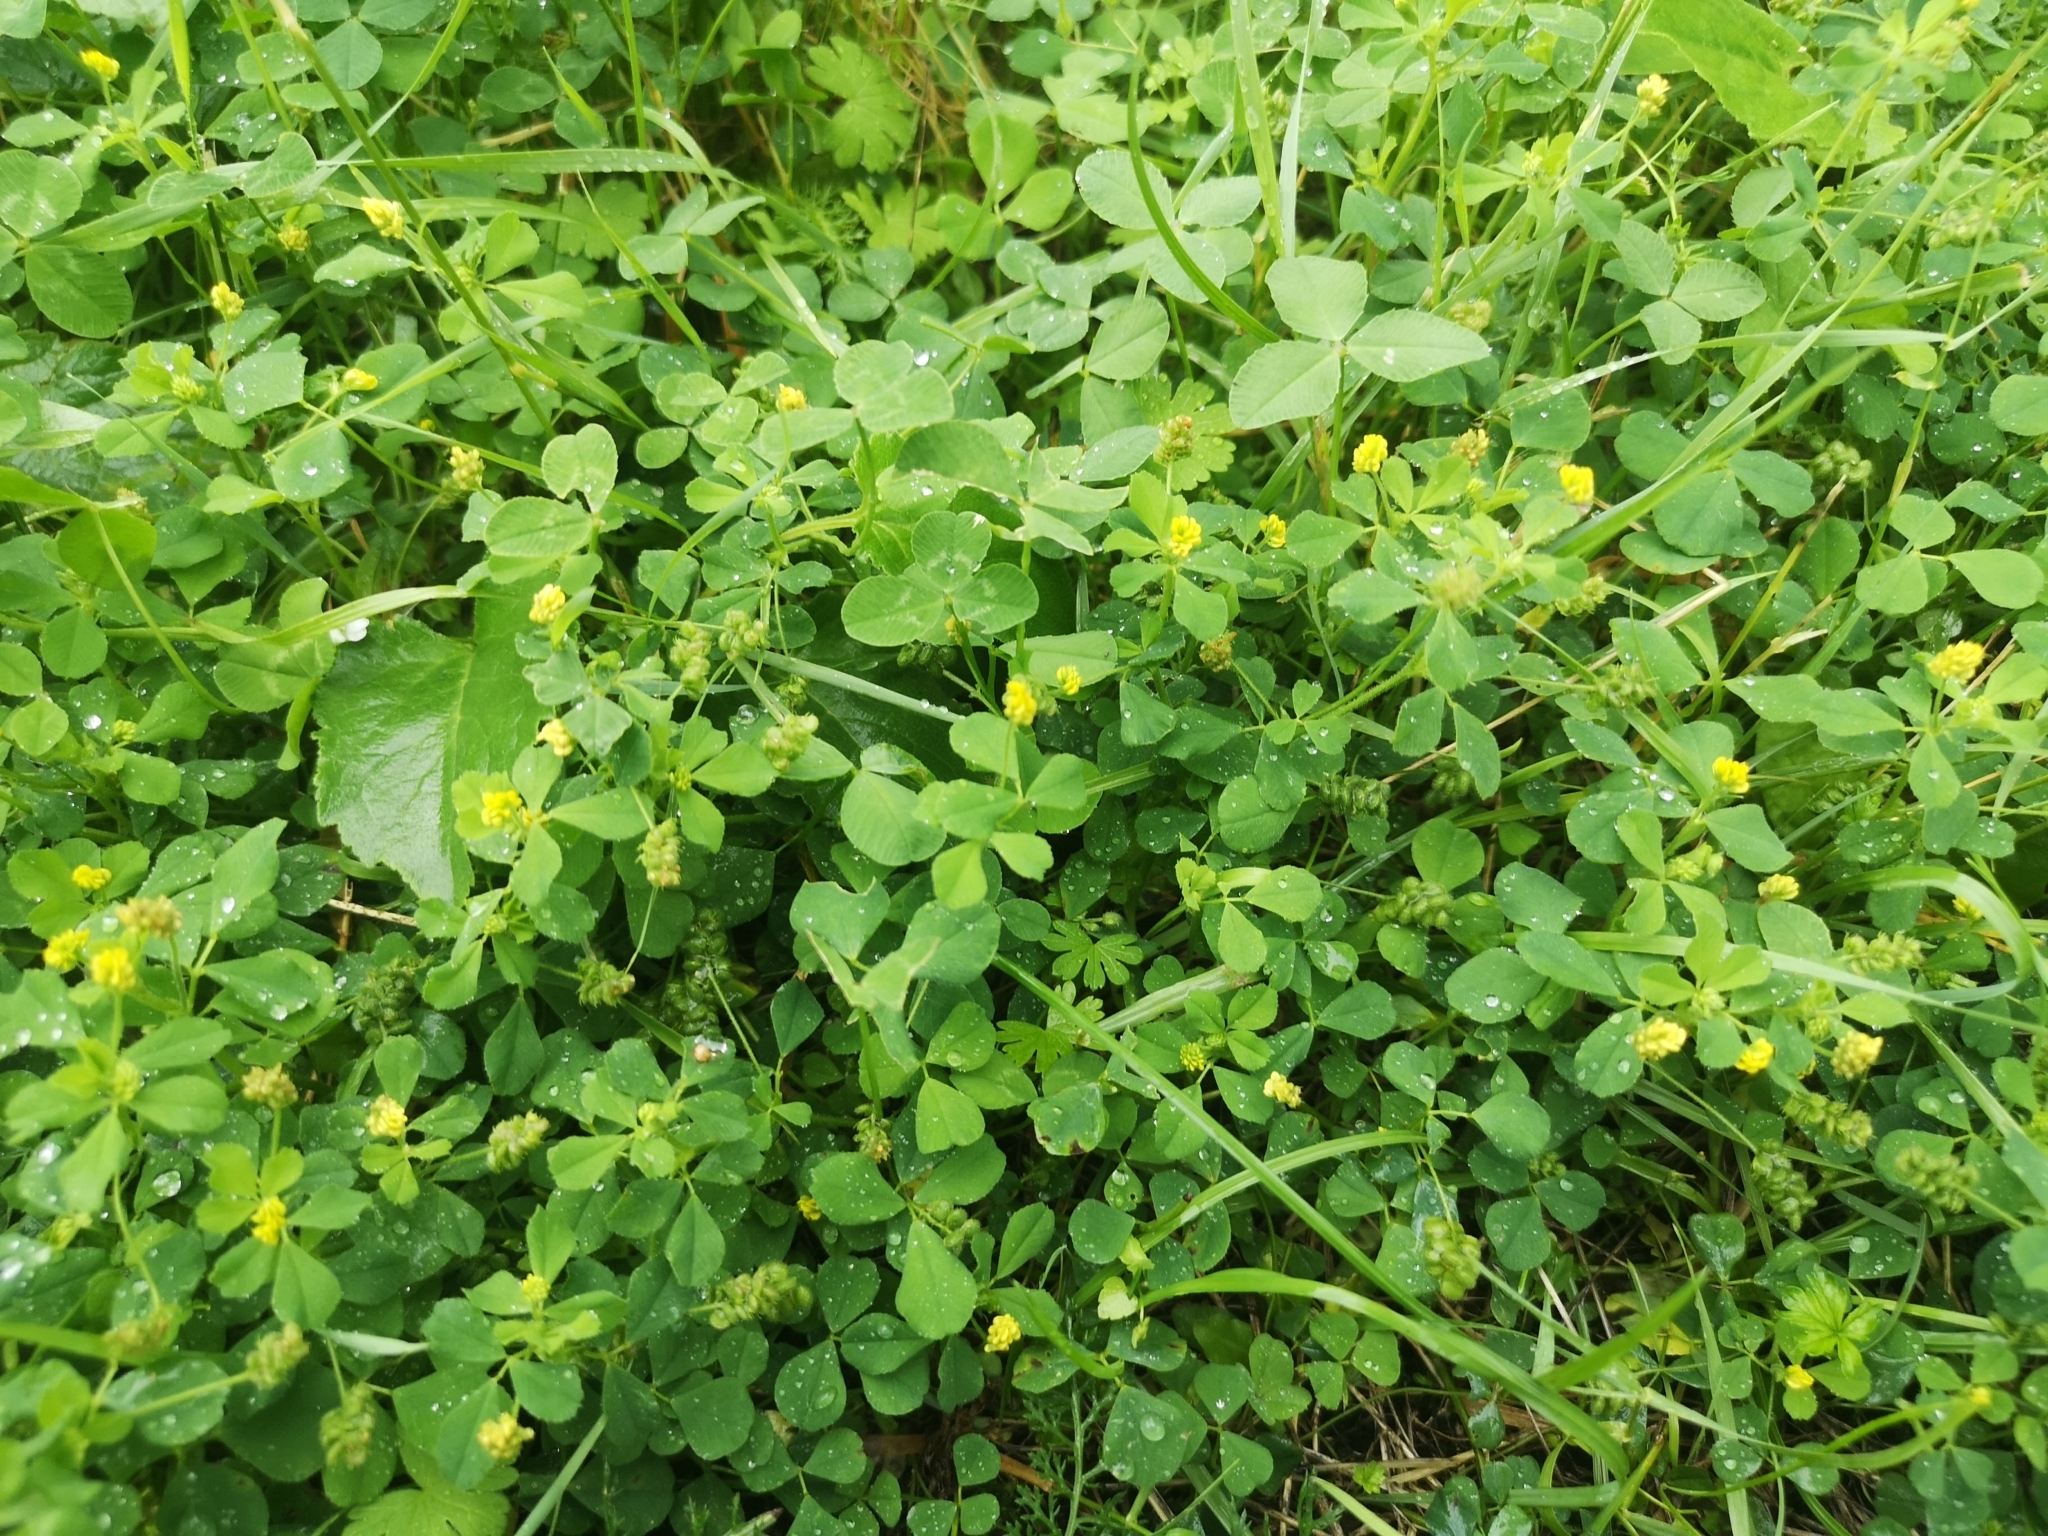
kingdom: Plantae
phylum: Tracheophyta
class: Magnoliopsida
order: Fabales
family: Fabaceae
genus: Medicago
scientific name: Medicago lupulina
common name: Black medick
